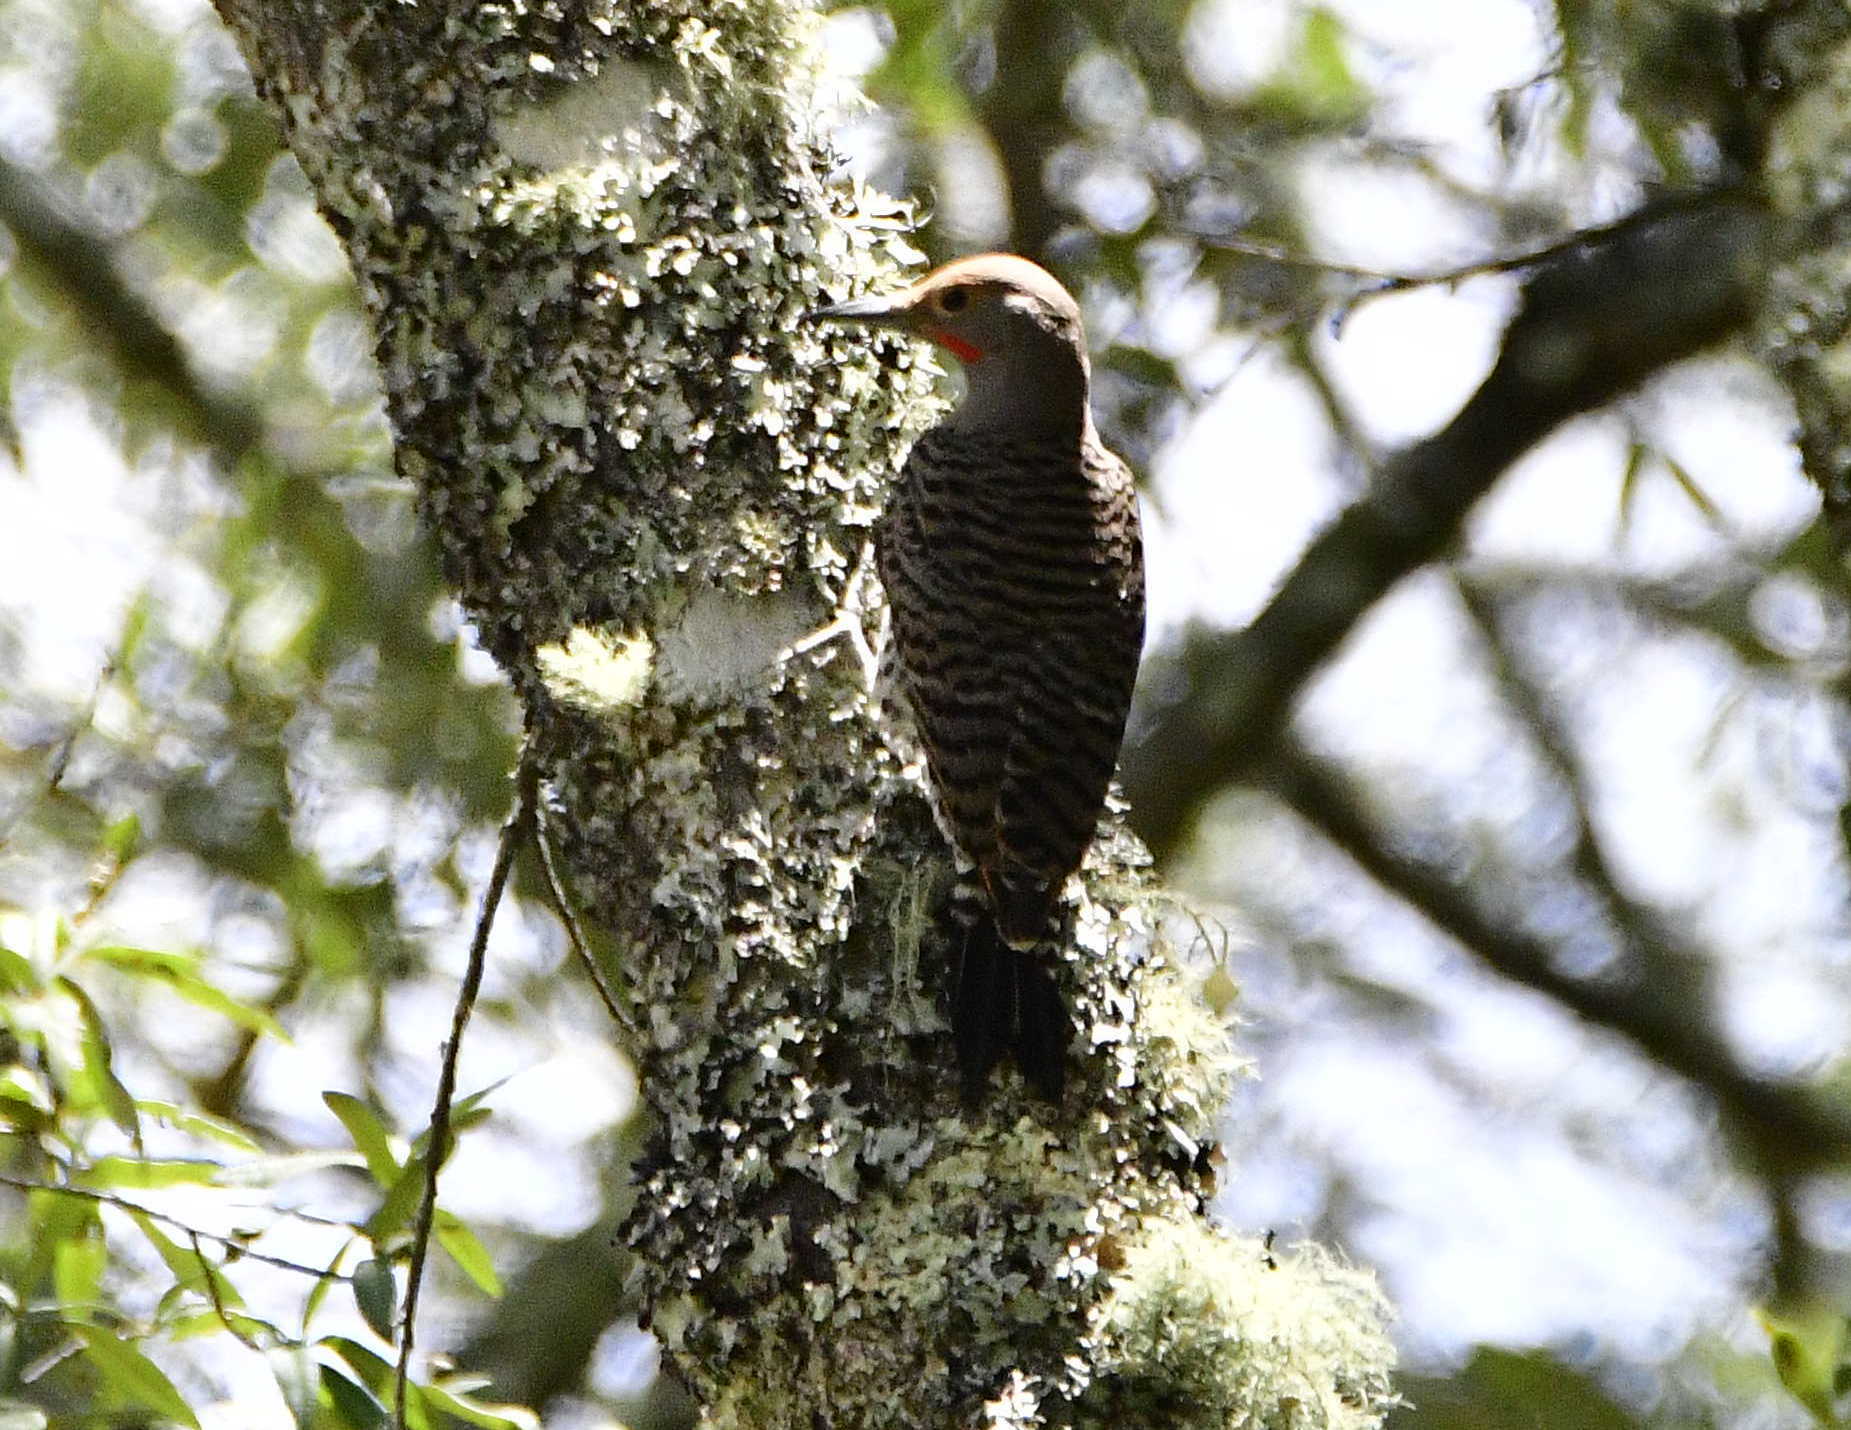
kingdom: Animalia
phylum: Chordata
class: Aves
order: Piciformes
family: Picidae
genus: Colaptes
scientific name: Colaptes auratus
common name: Northern flicker
